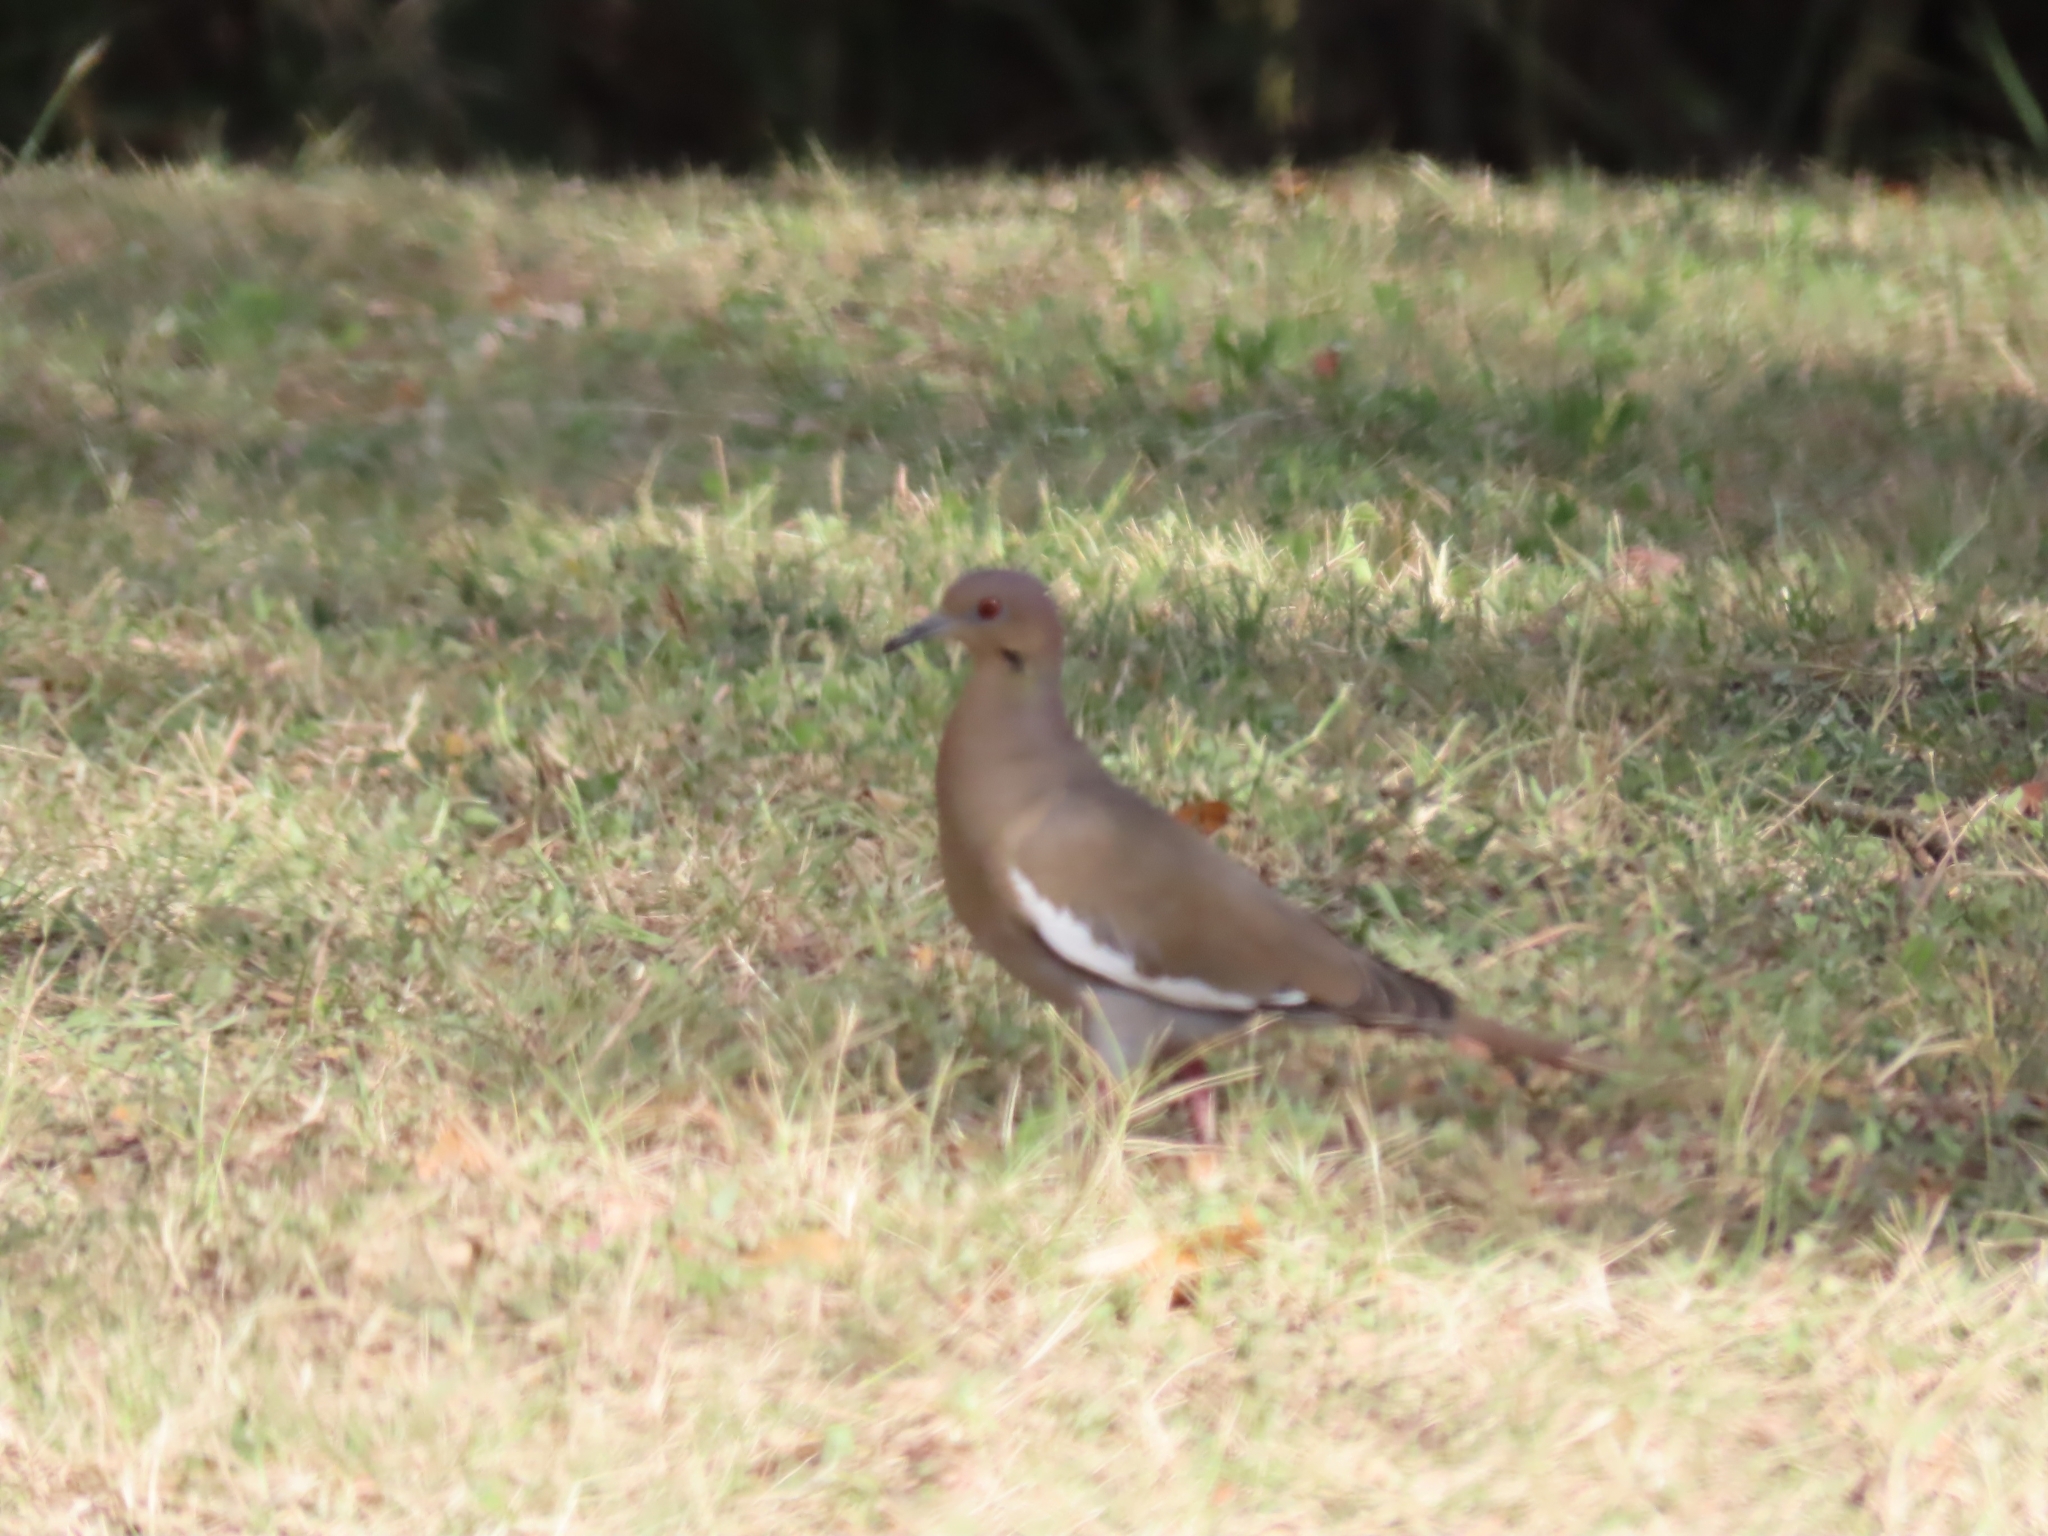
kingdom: Animalia
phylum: Chordata
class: Aves
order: Columbiformes
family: Columbidae
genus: Zenaida
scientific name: Zenaida asiatica
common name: White-winged dove
